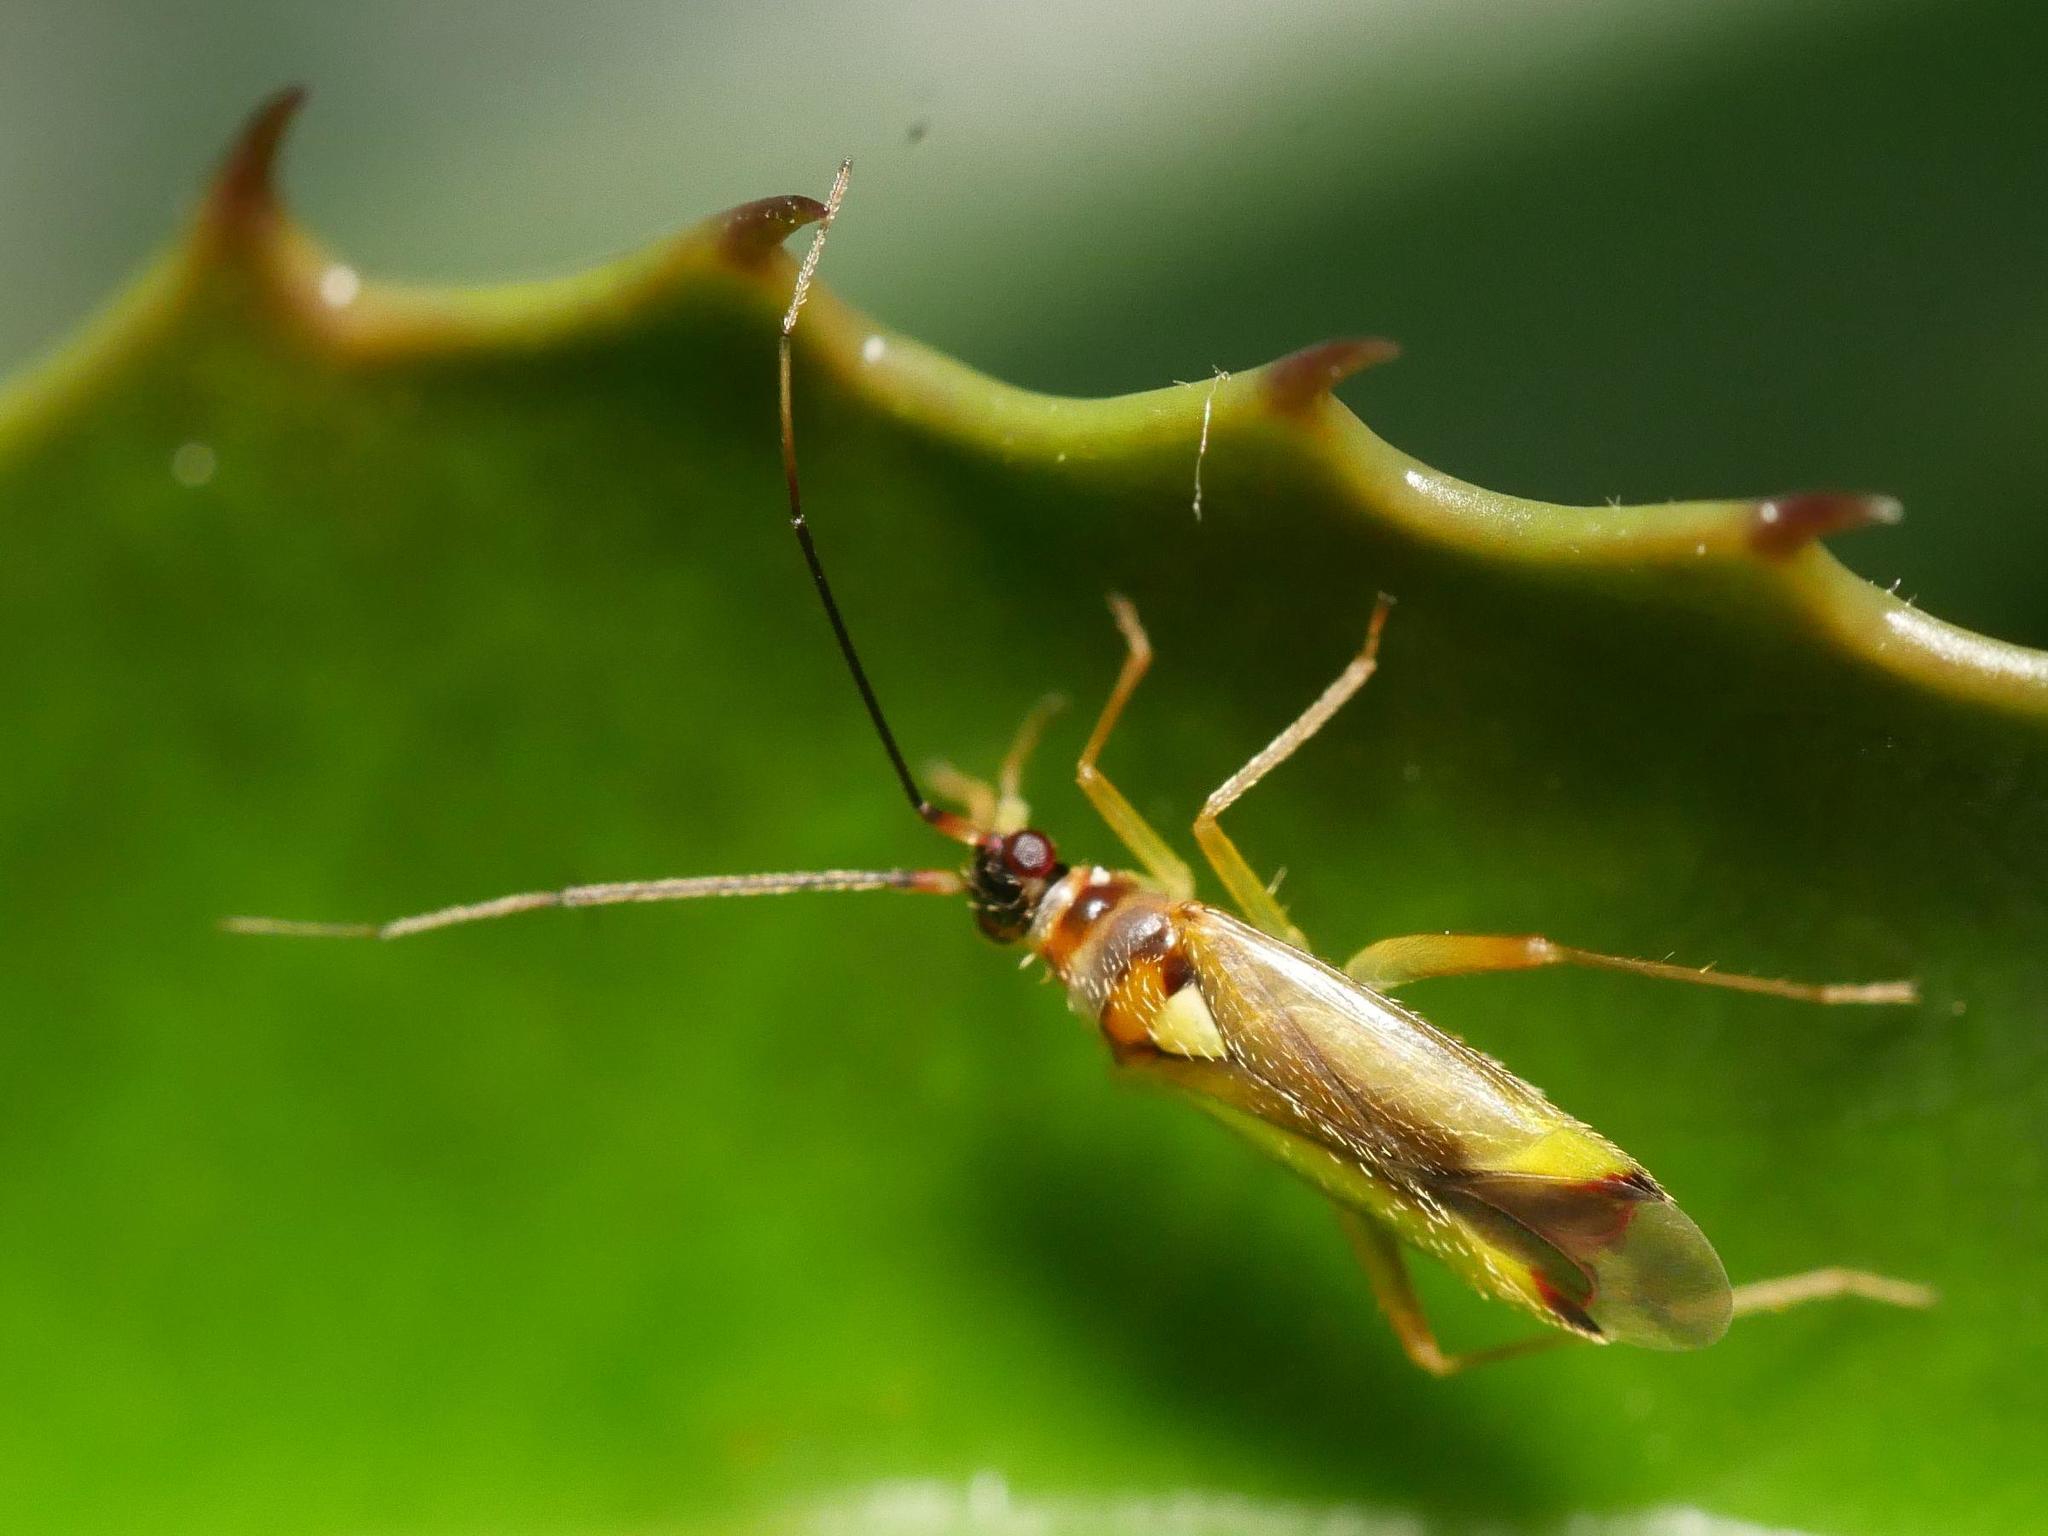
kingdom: Animalia
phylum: Arthropoda
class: Insecta
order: Hemiptera
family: Miridae
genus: Campyloneura
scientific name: Campyloneura virgula
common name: Predatory bug
